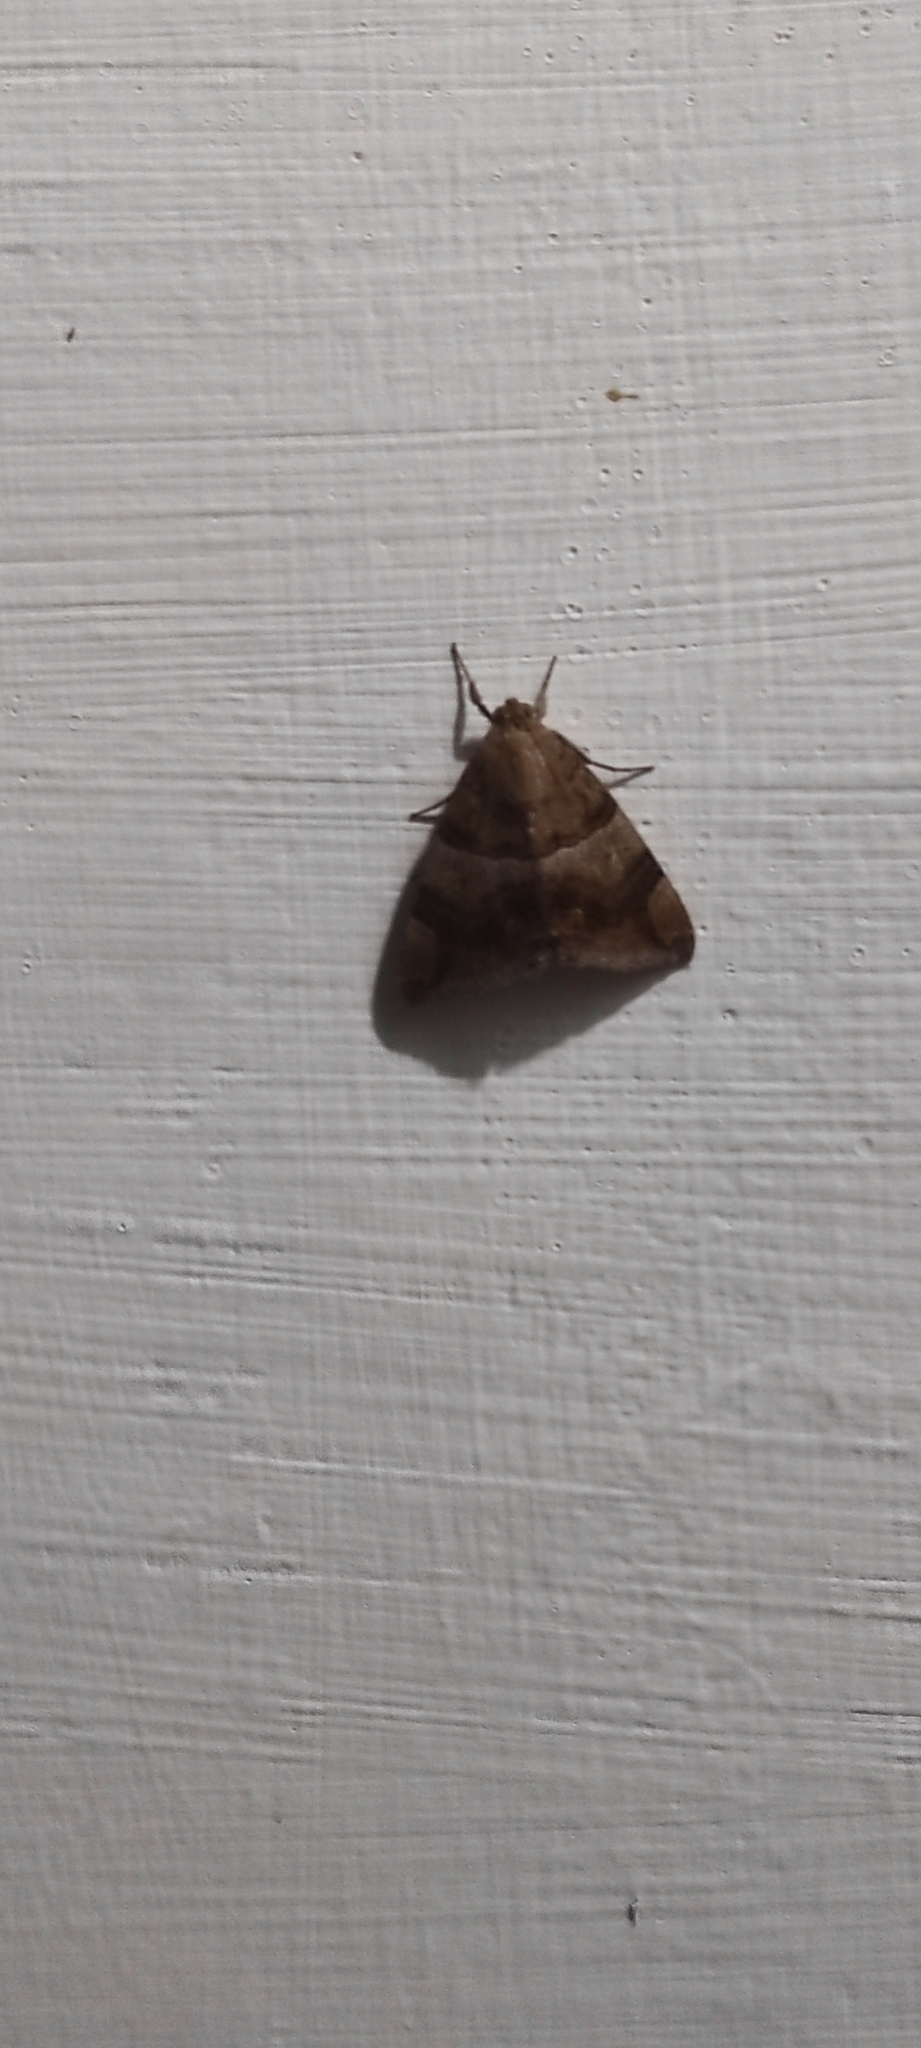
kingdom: Animalia
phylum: Arthropoda
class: Insecta
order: Lepidoptera
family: Erebidae
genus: Achaea
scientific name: Achaea janata
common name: Croton caterpillar
